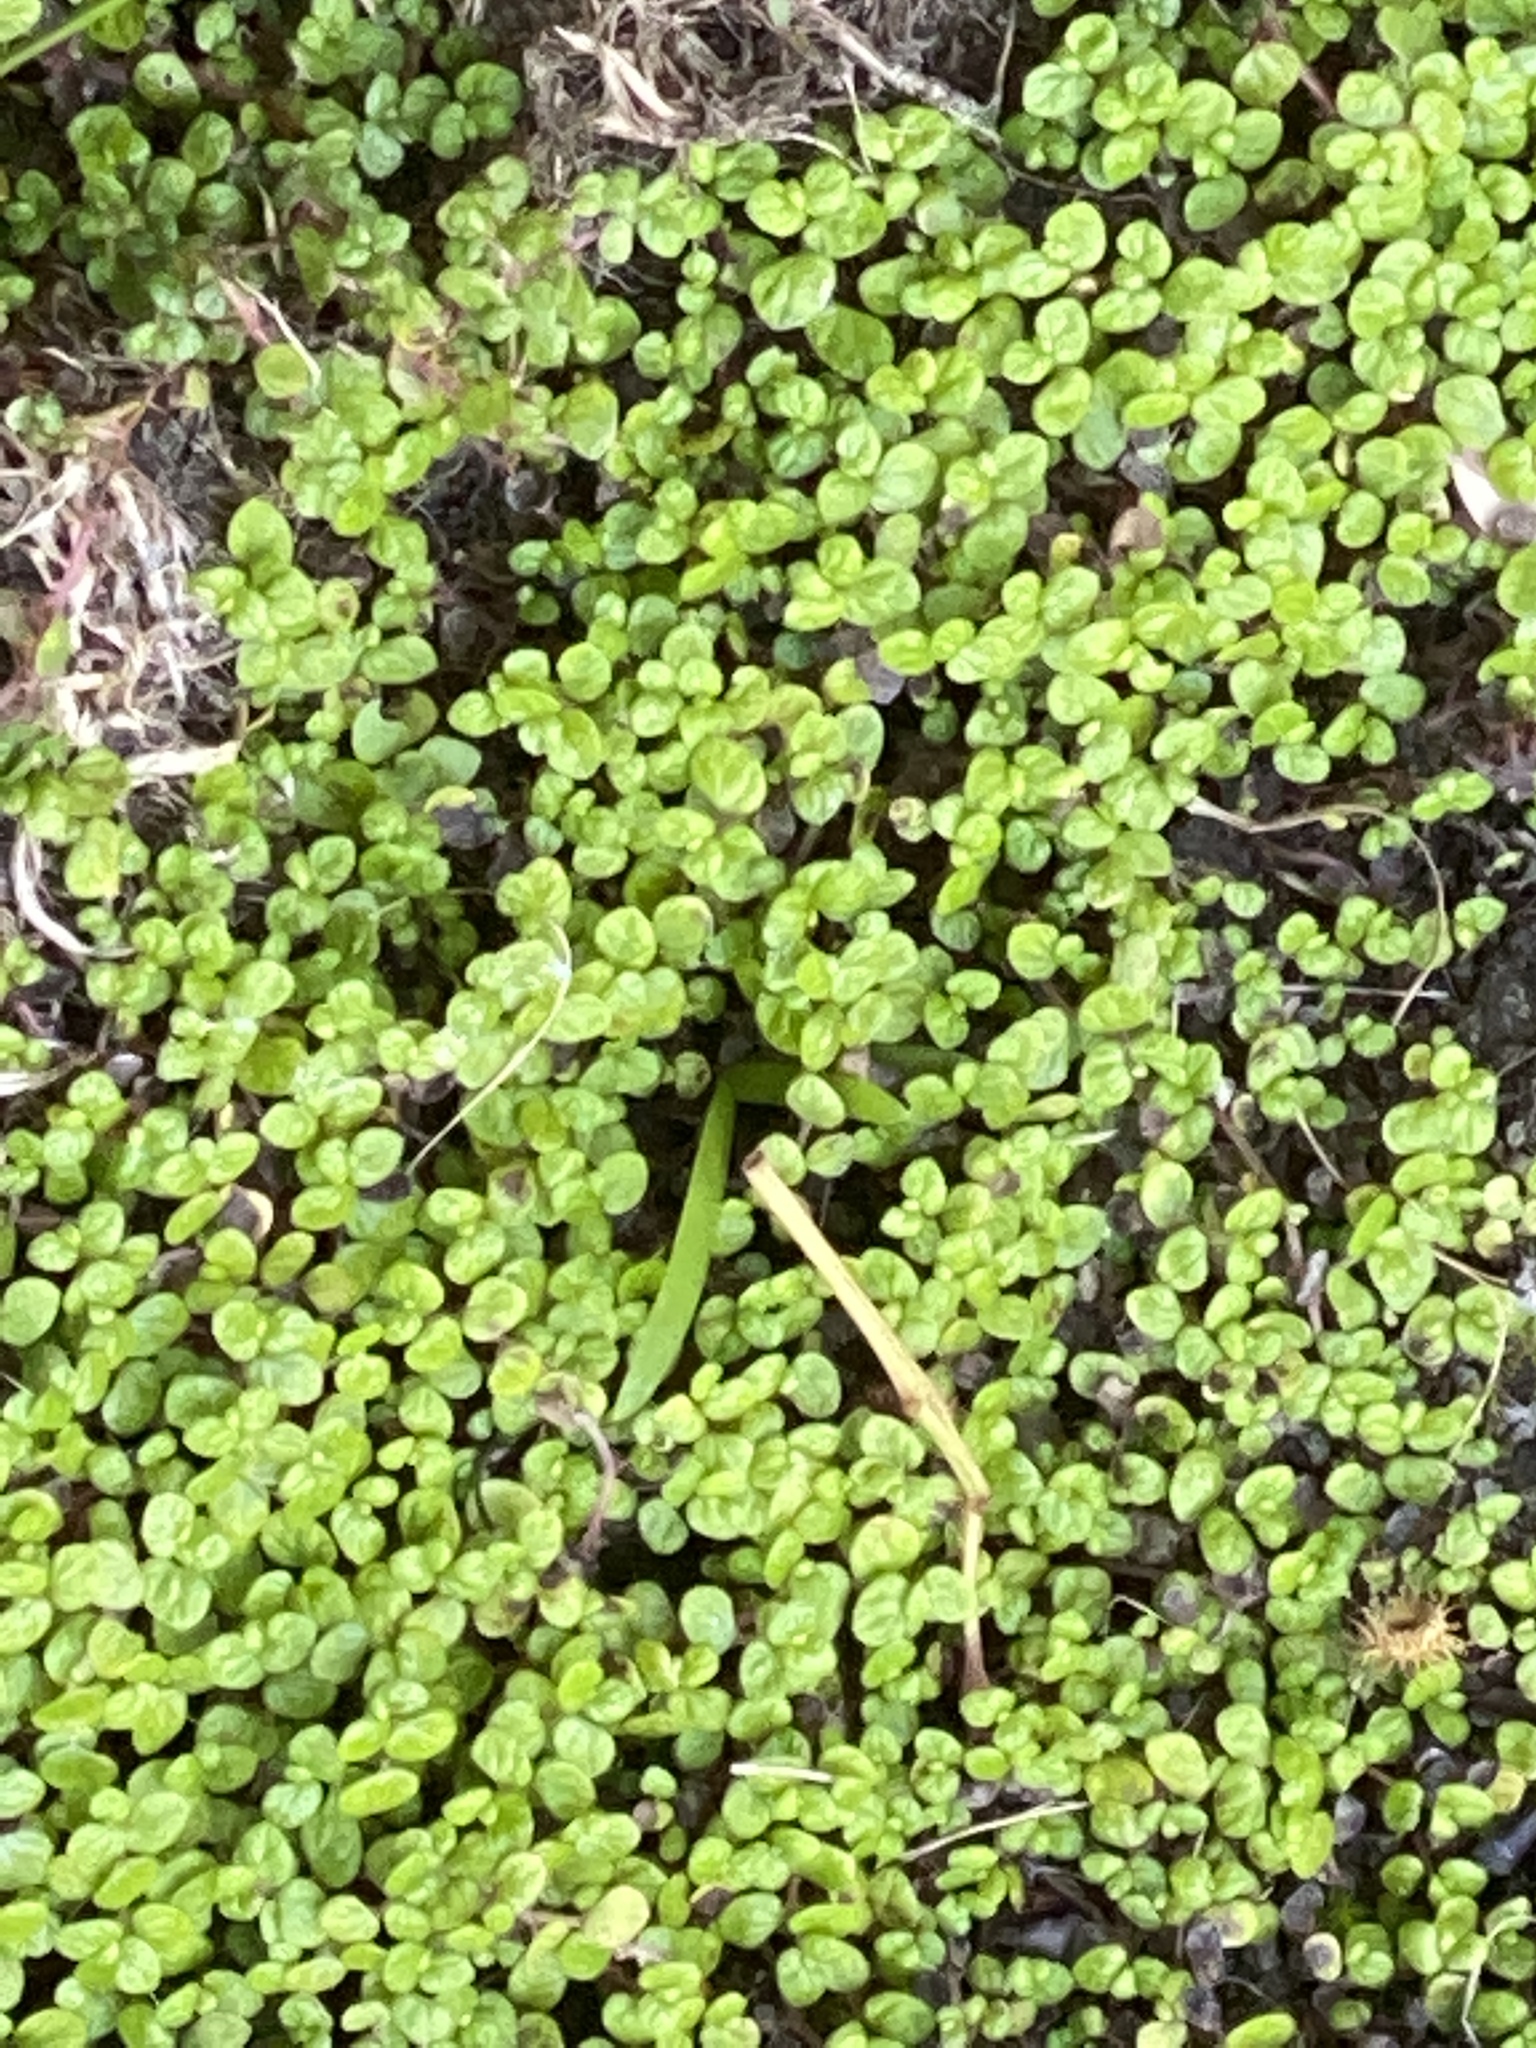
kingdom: Plantae
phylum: Tracheophyta
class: Magnoliopsida
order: Rosales
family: Urticaceae
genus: Soleirolia
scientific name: Soleirolia soleirolii
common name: Mind-your-own-business
